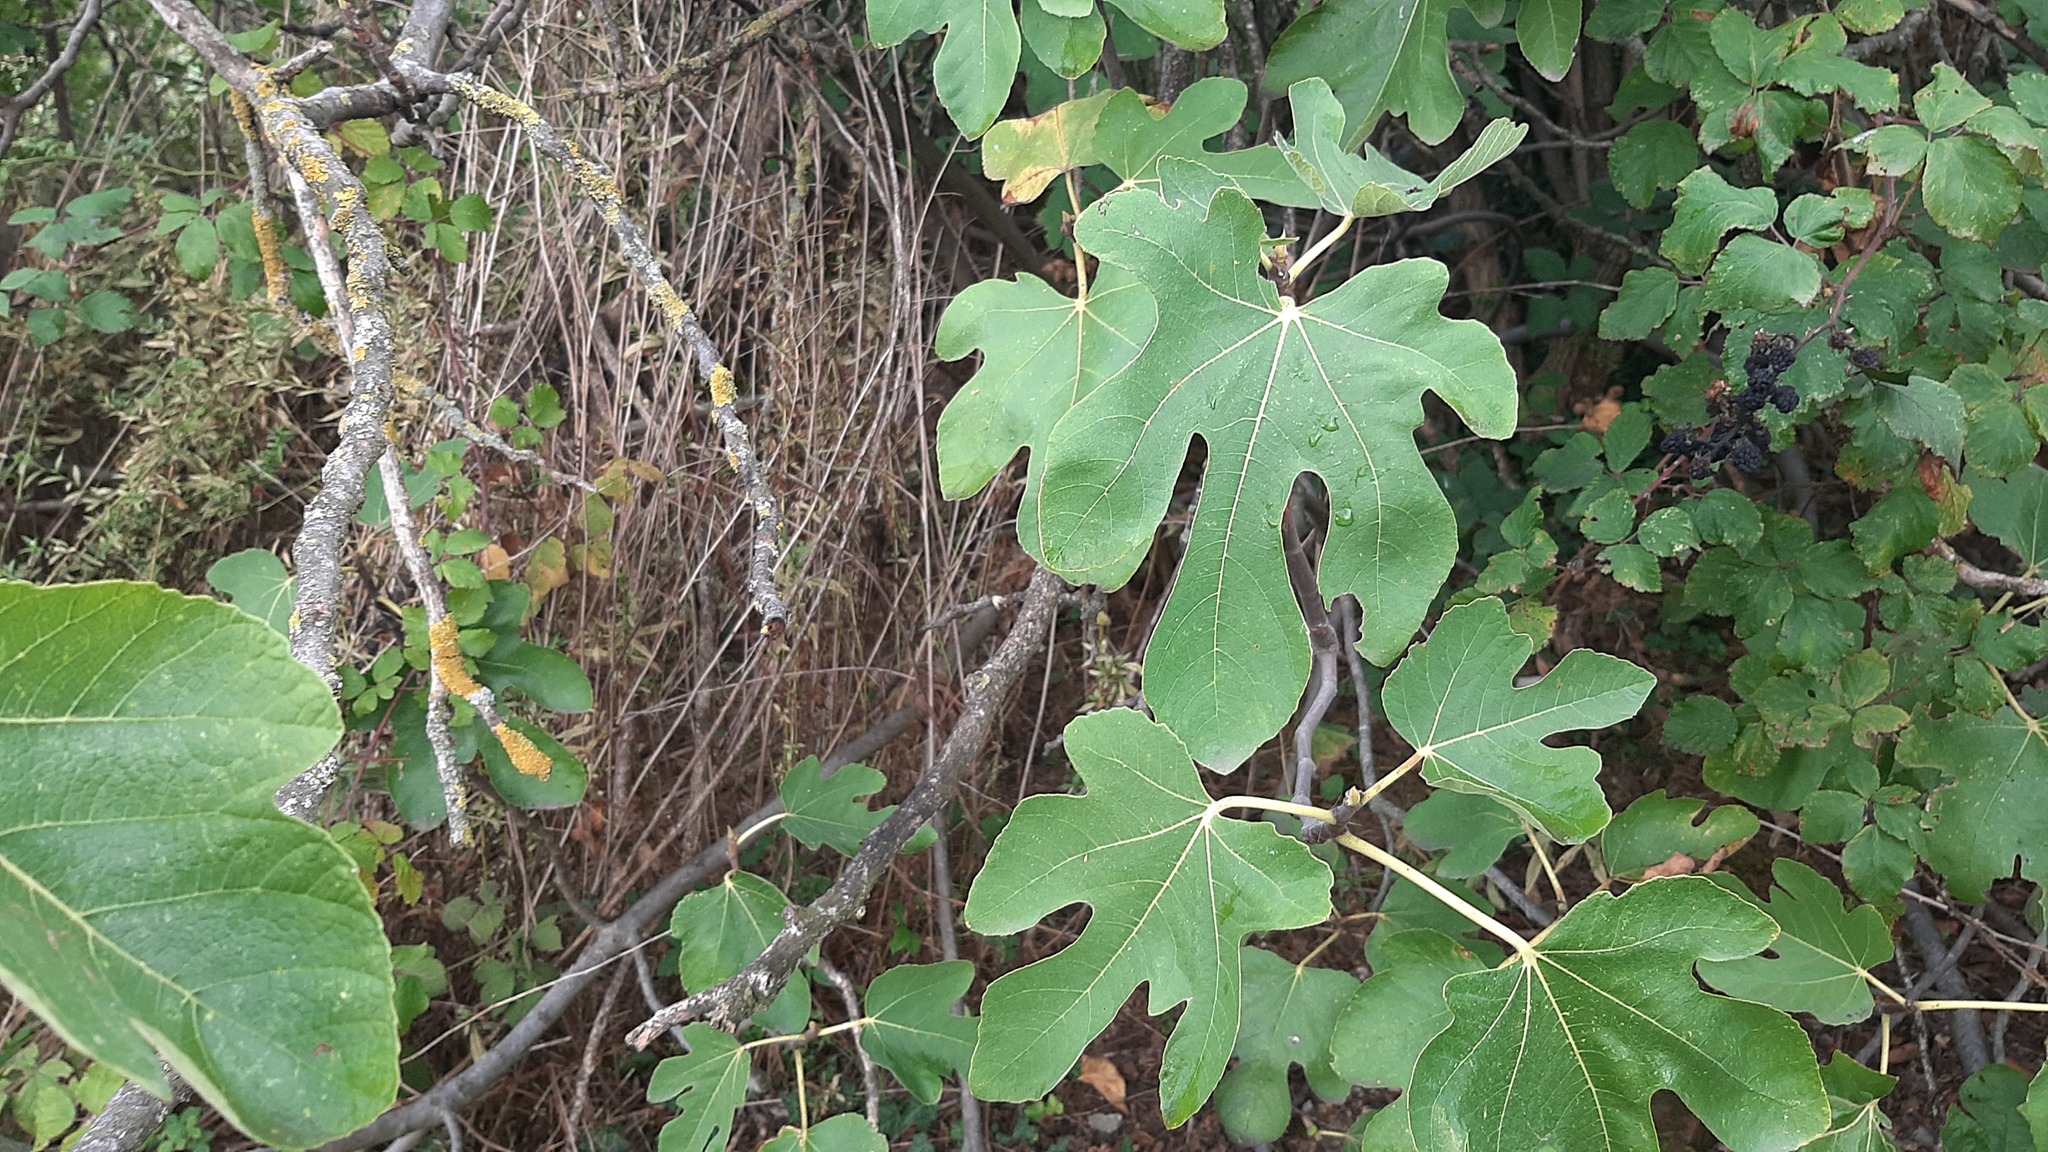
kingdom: Plantae
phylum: Tracheophyta
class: Magnoliopsida
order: Rosales
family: Moraceae
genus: Ficus
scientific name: Ficus carica
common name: Fig
